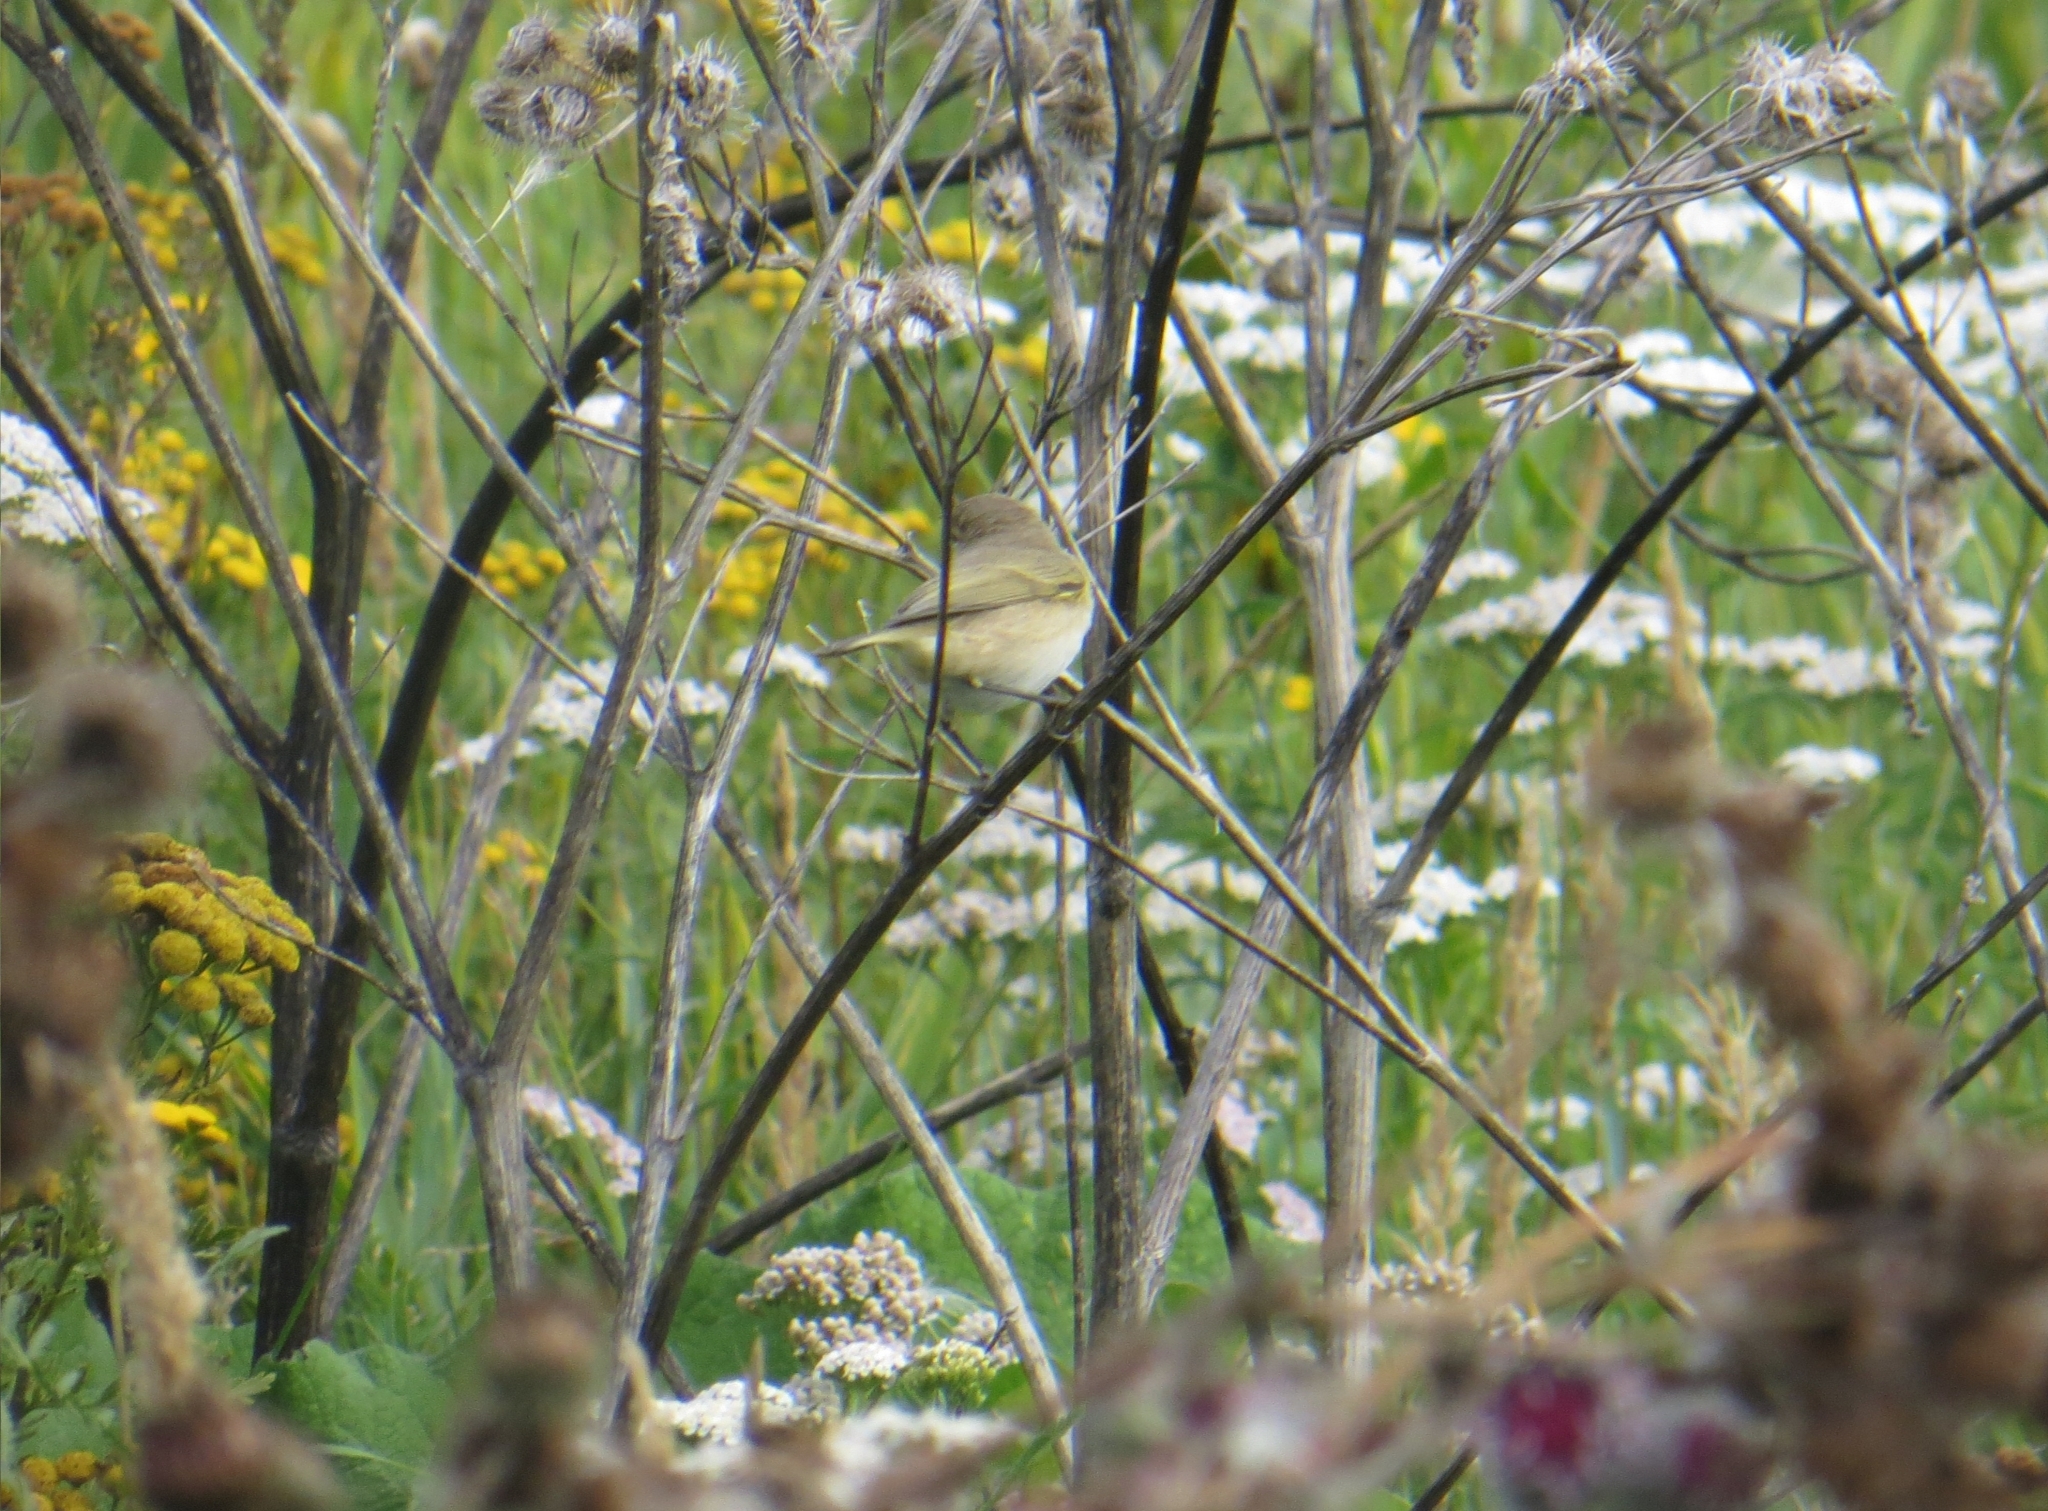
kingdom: Animalia
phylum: Chordata
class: Aves
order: Passeriformes
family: Phylloscopidae
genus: Phylloscopus
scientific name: Phylloscopus collybita
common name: Common chiffchaff
